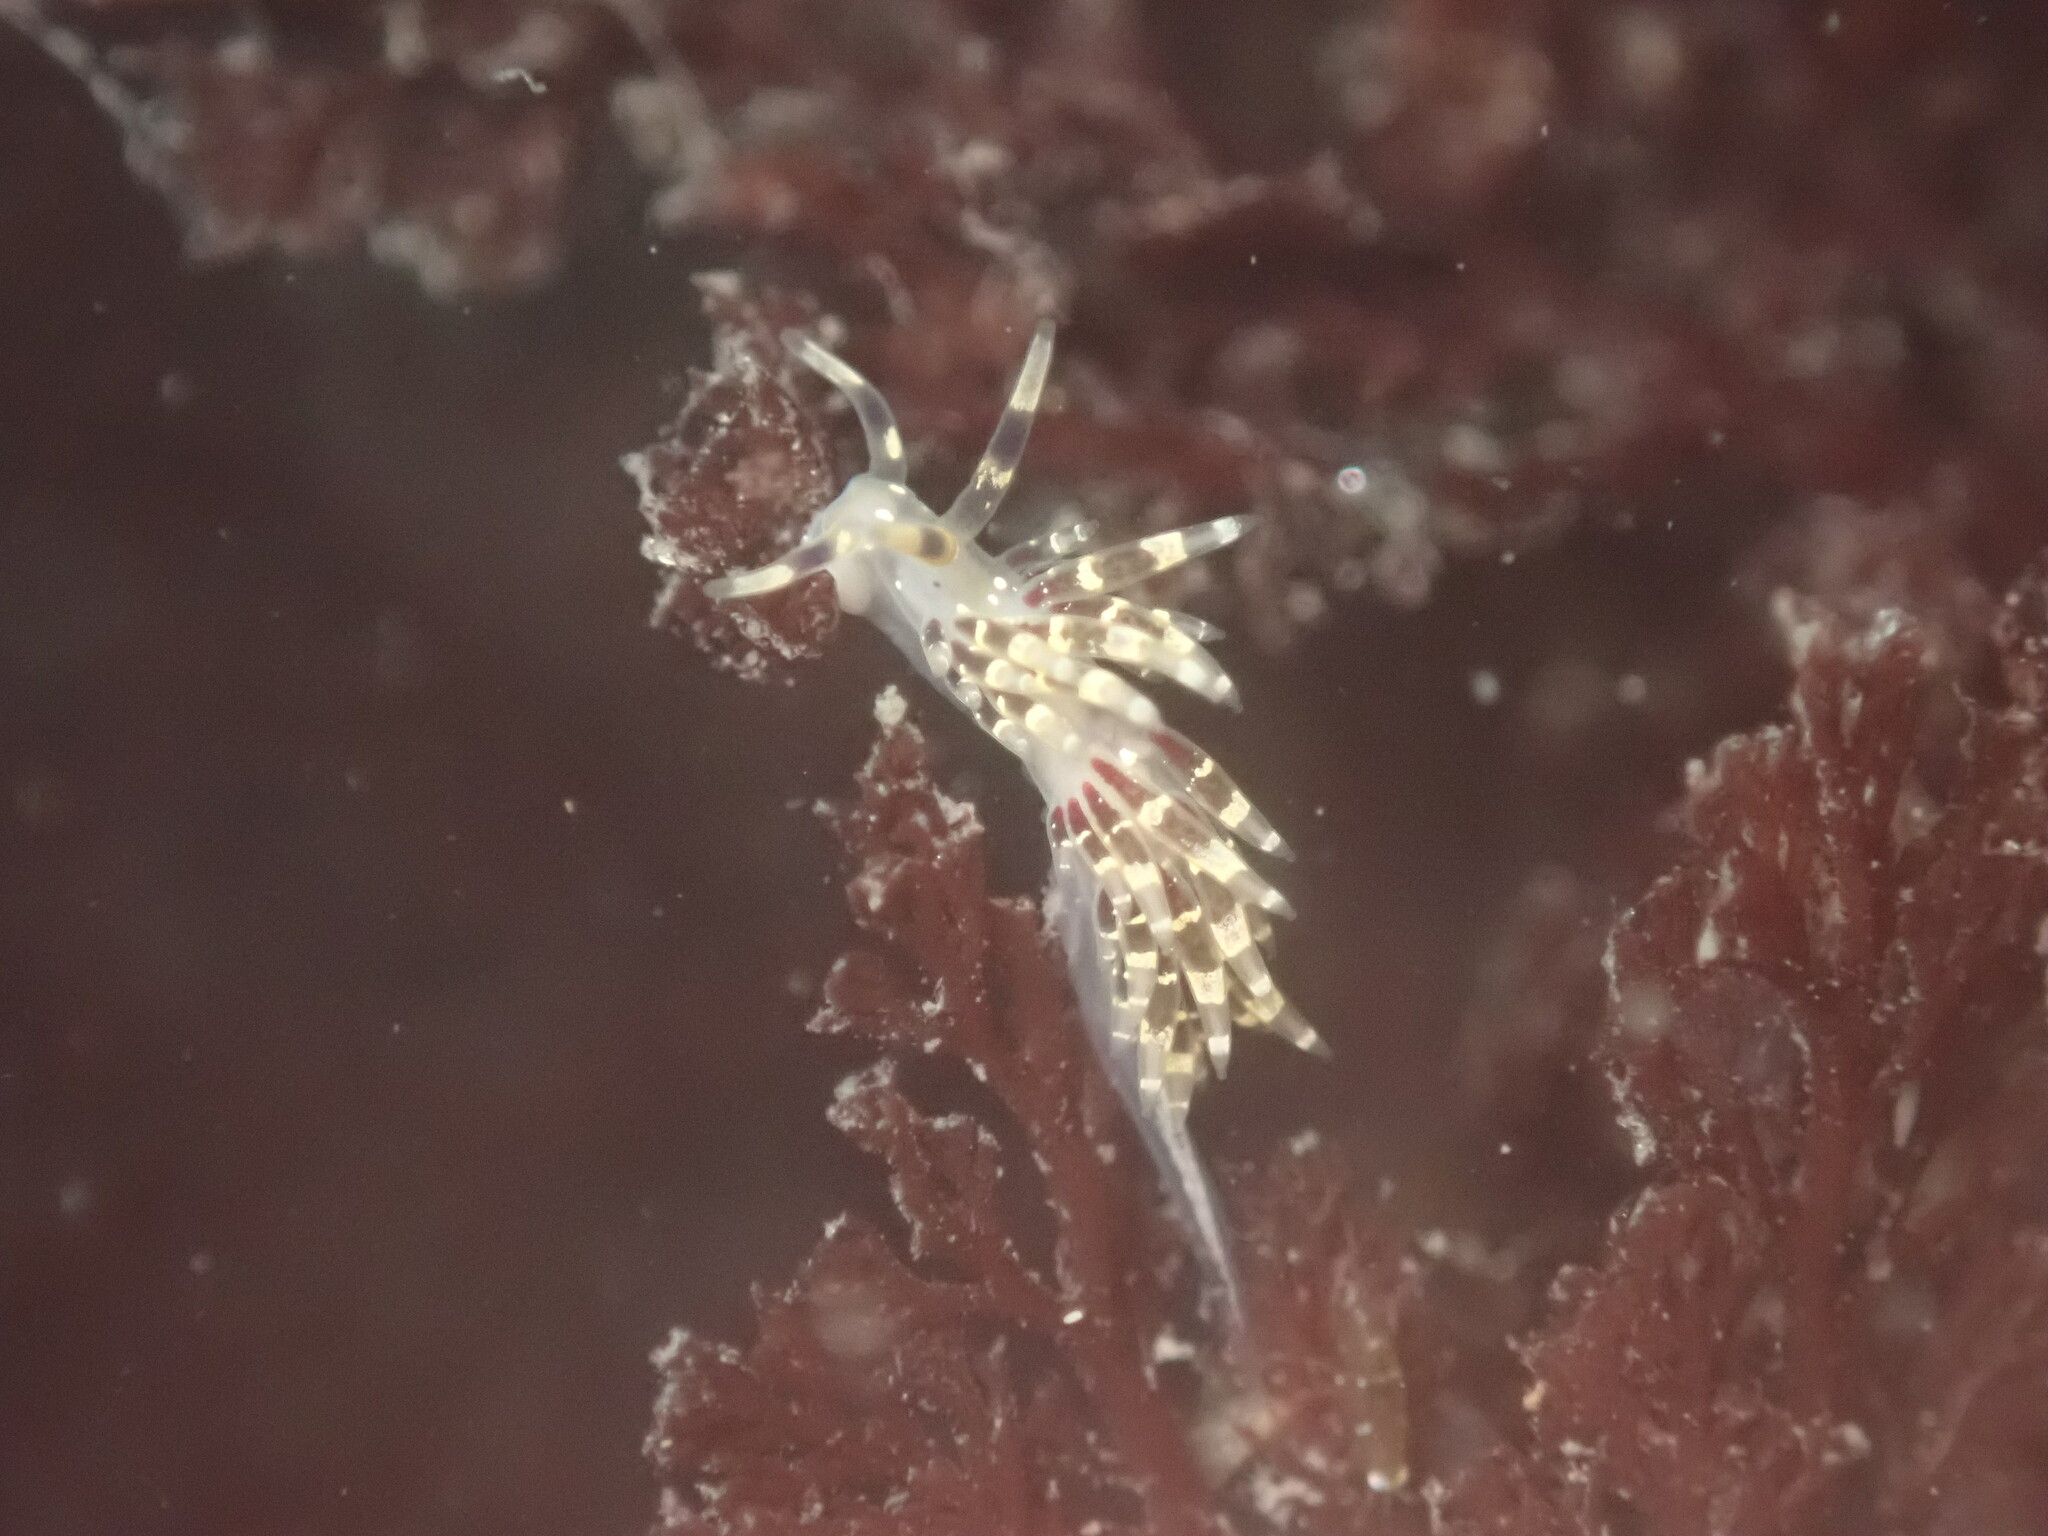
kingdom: Animalia
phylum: Mollusca
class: Gastropoda
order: Nudibranchia
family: Abronicidae
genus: Abronica
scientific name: Abronica abronia
